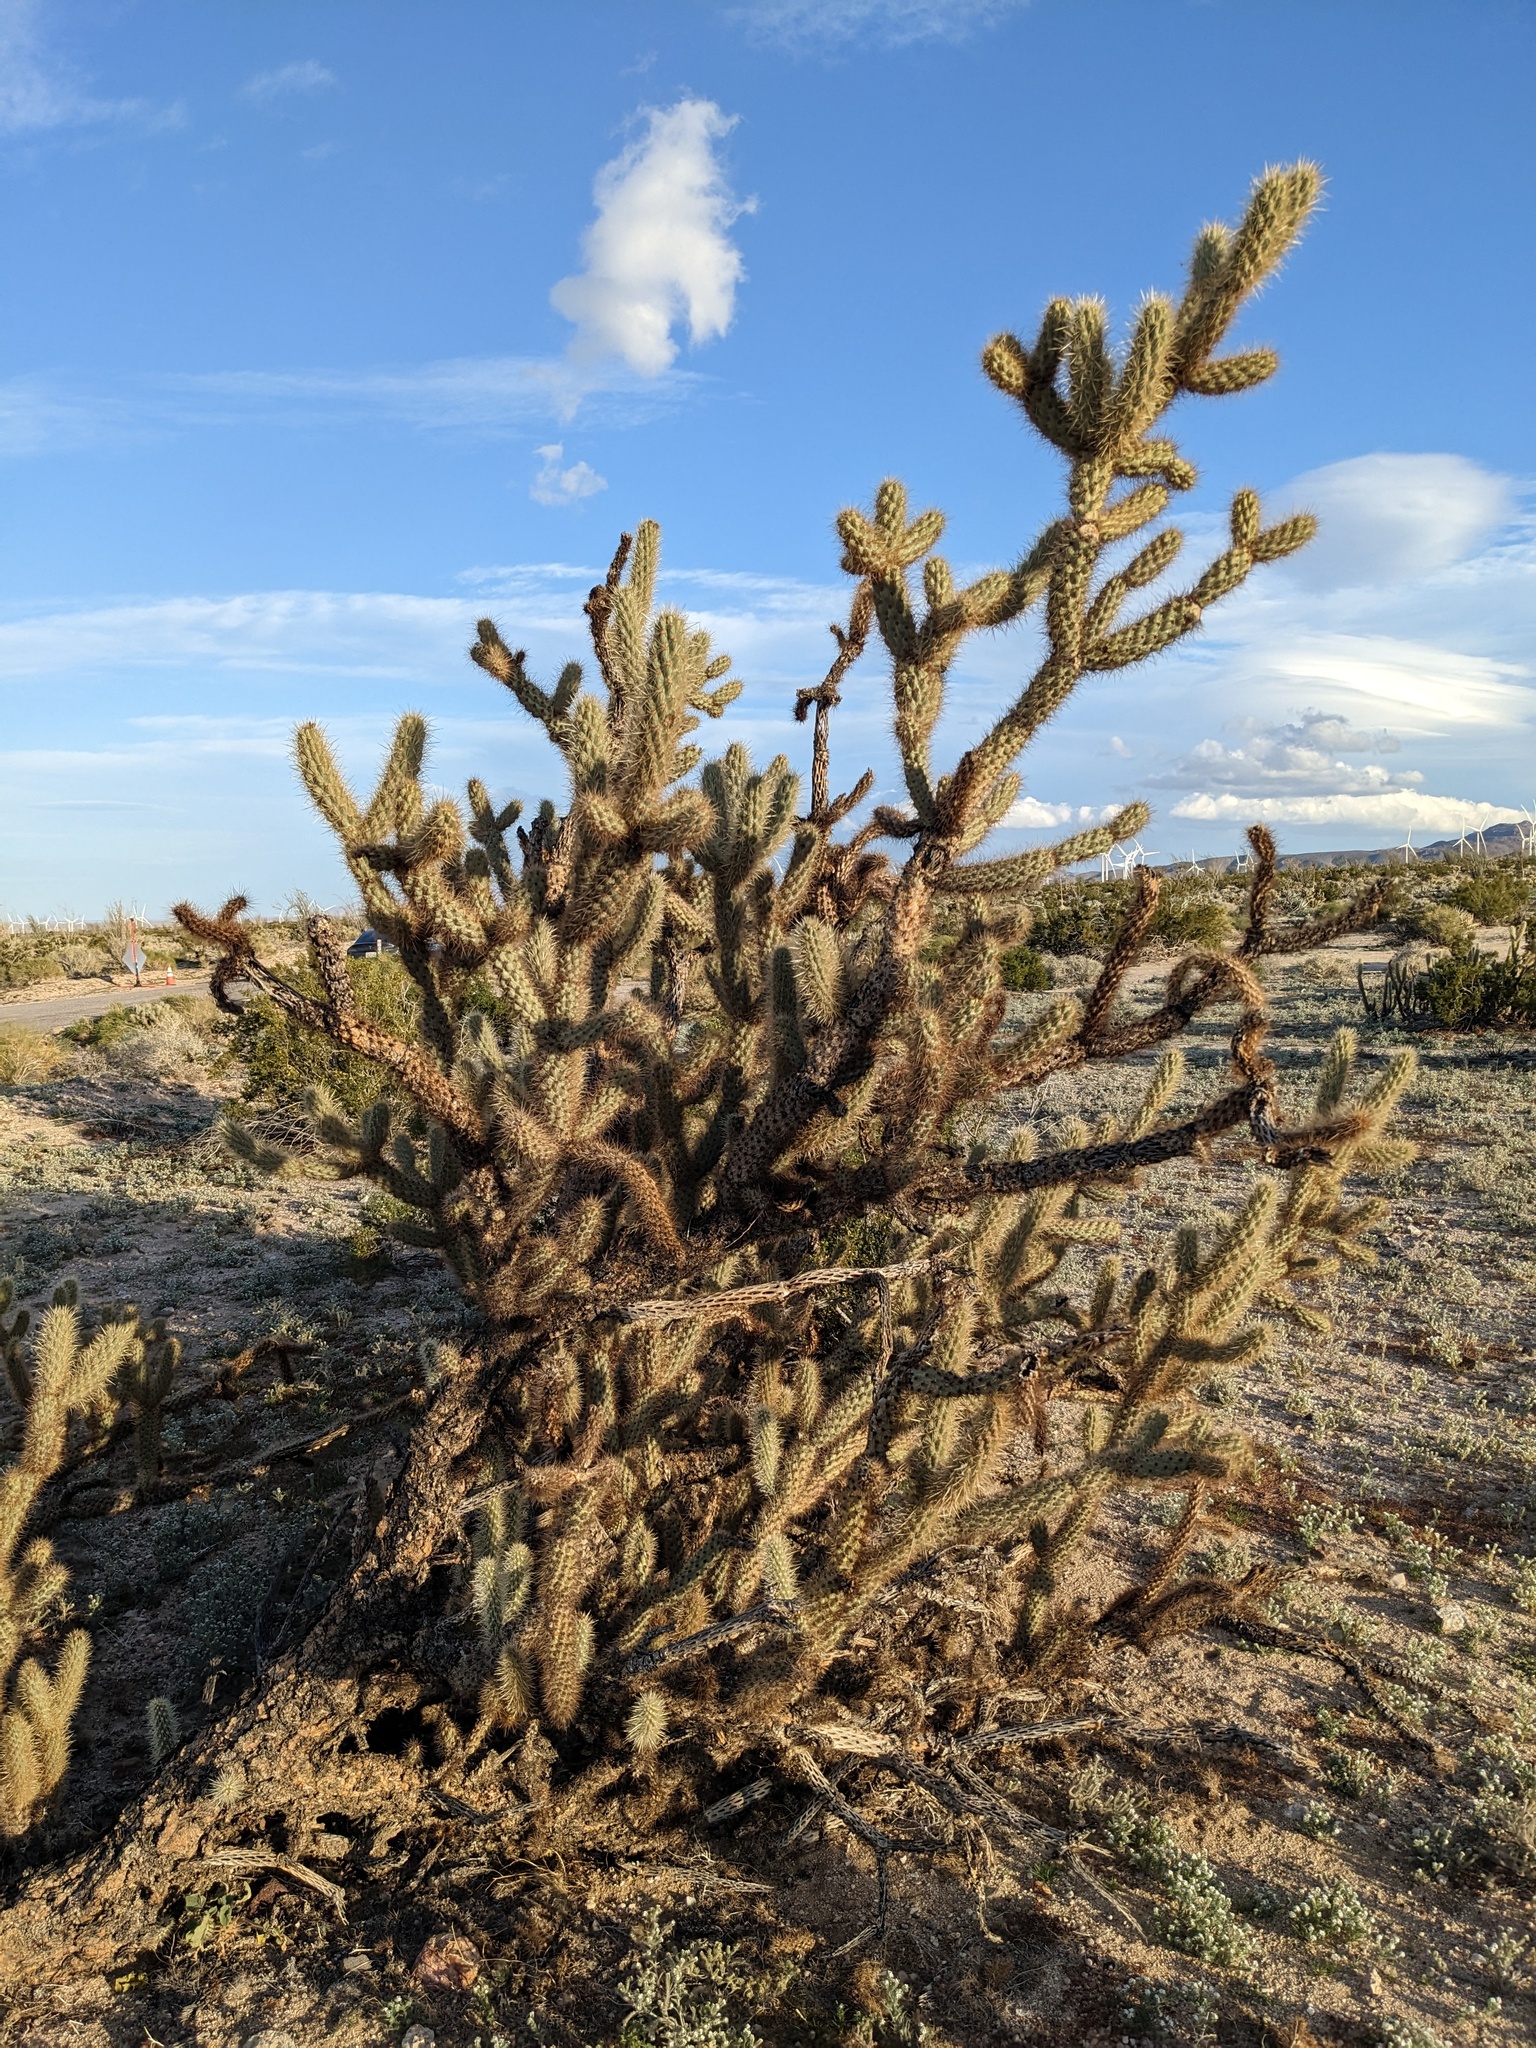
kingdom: Plantae
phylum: Tracheophyta
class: Magnoliopsida
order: Caryophyllales
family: Cactaceae
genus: Cylindropuntia
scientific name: Cylindropuntia wolfii
